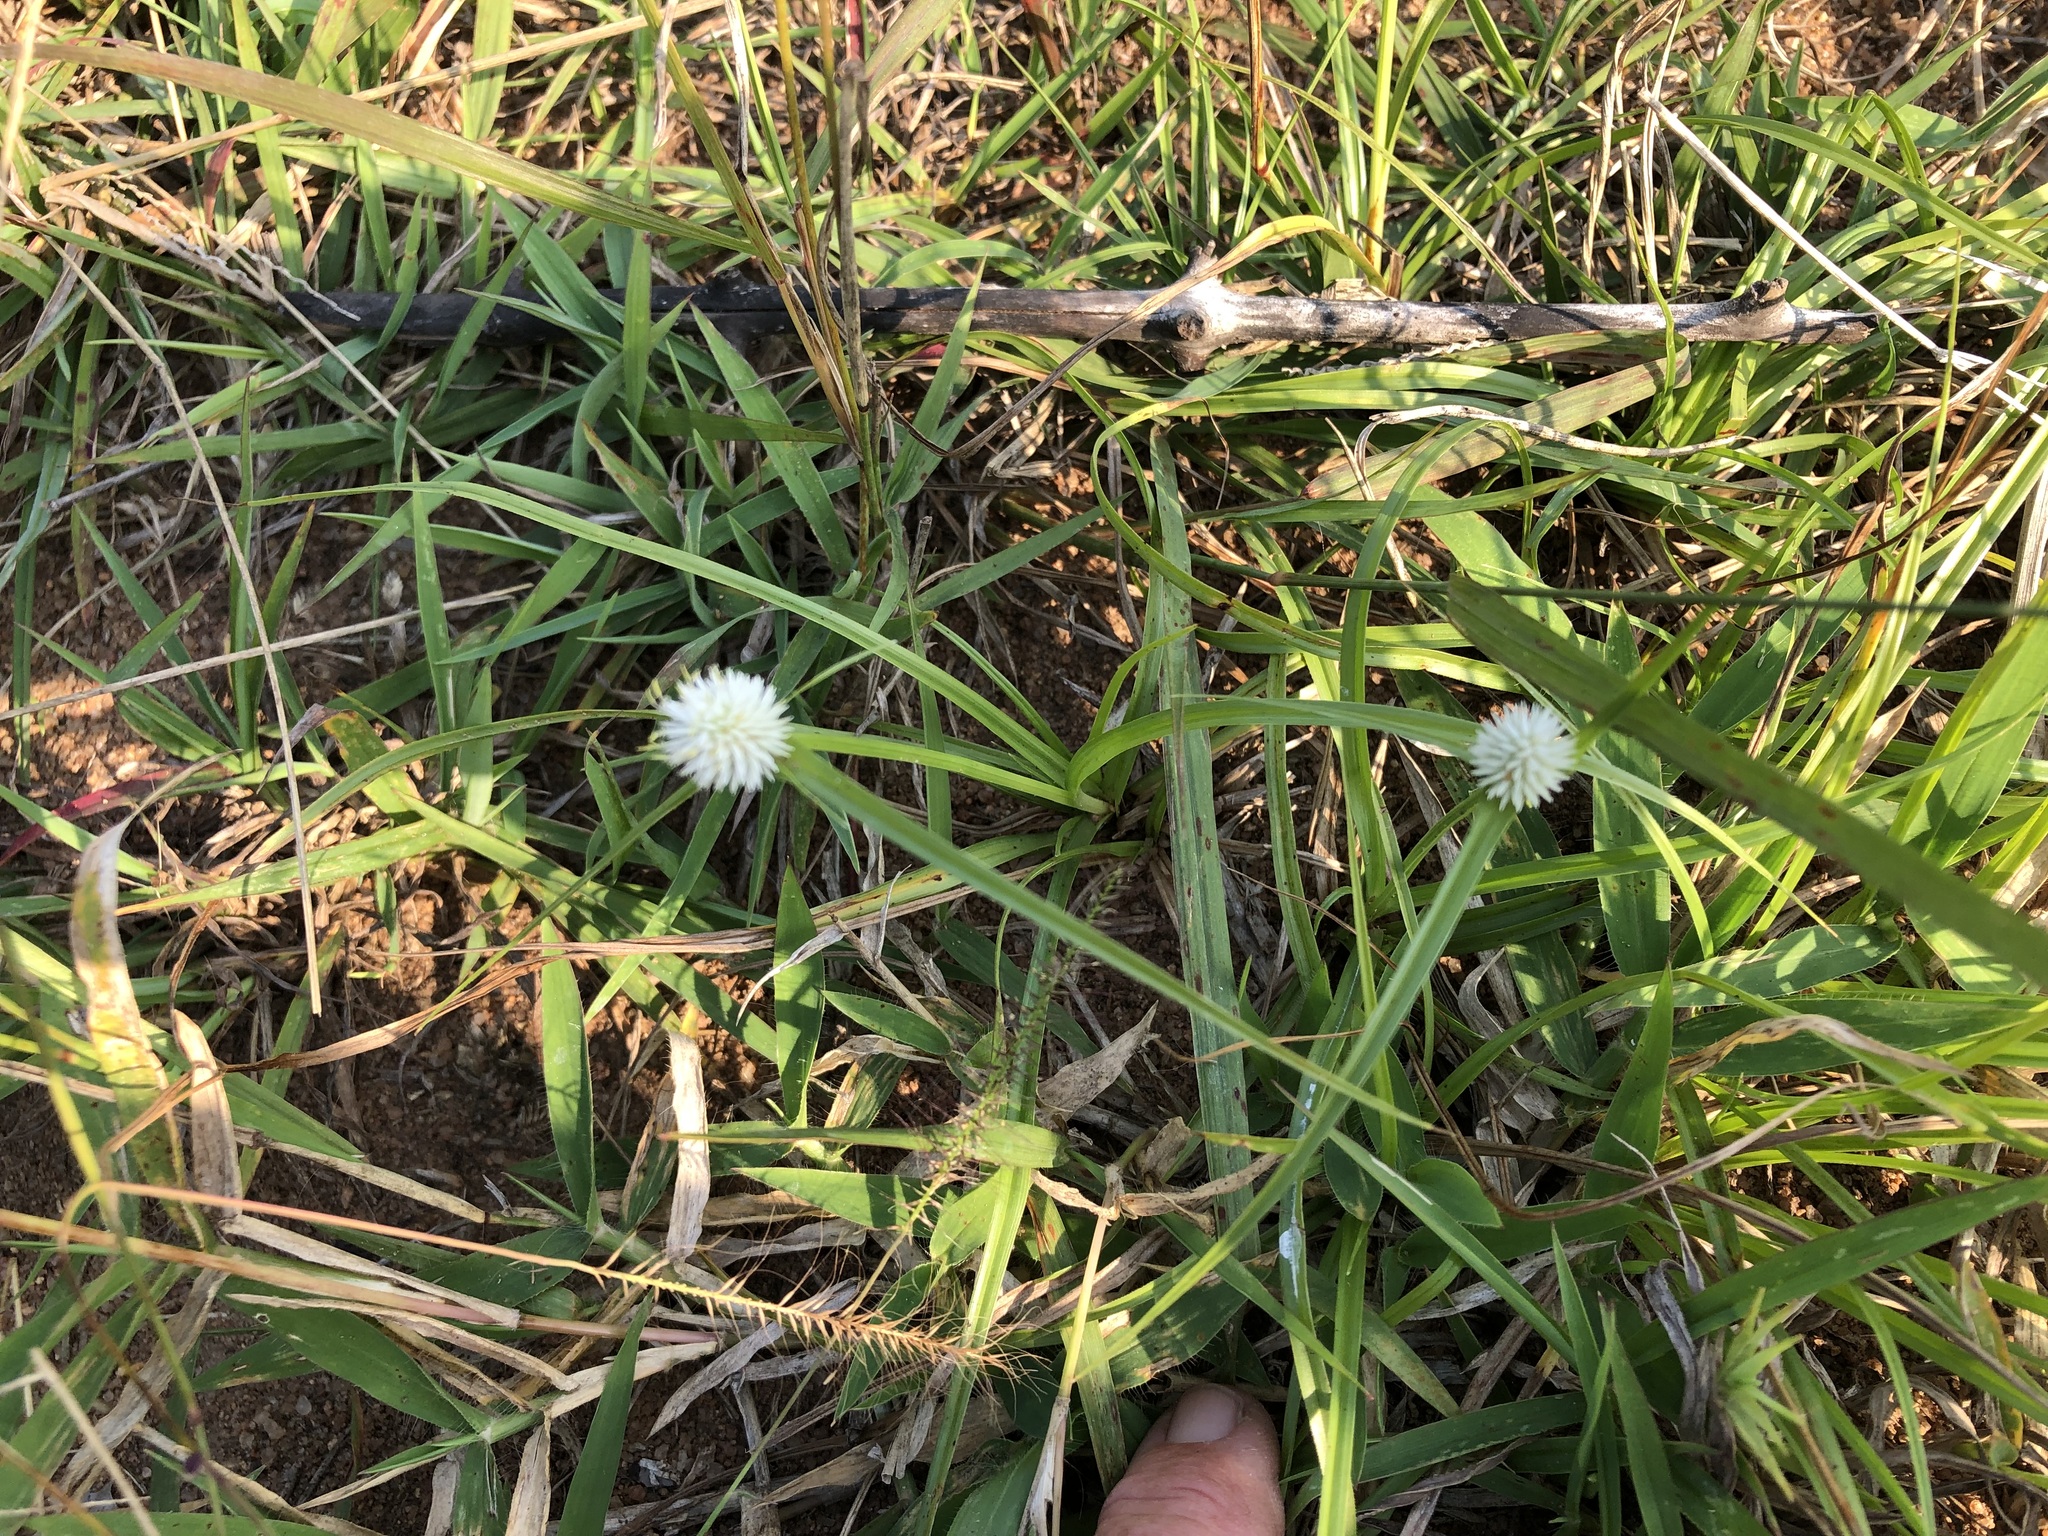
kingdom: Plantae
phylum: Tracheophyta
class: Liliopsida
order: Poales
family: Cyperaceae
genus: Cyperus
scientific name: Cyperus alatus
